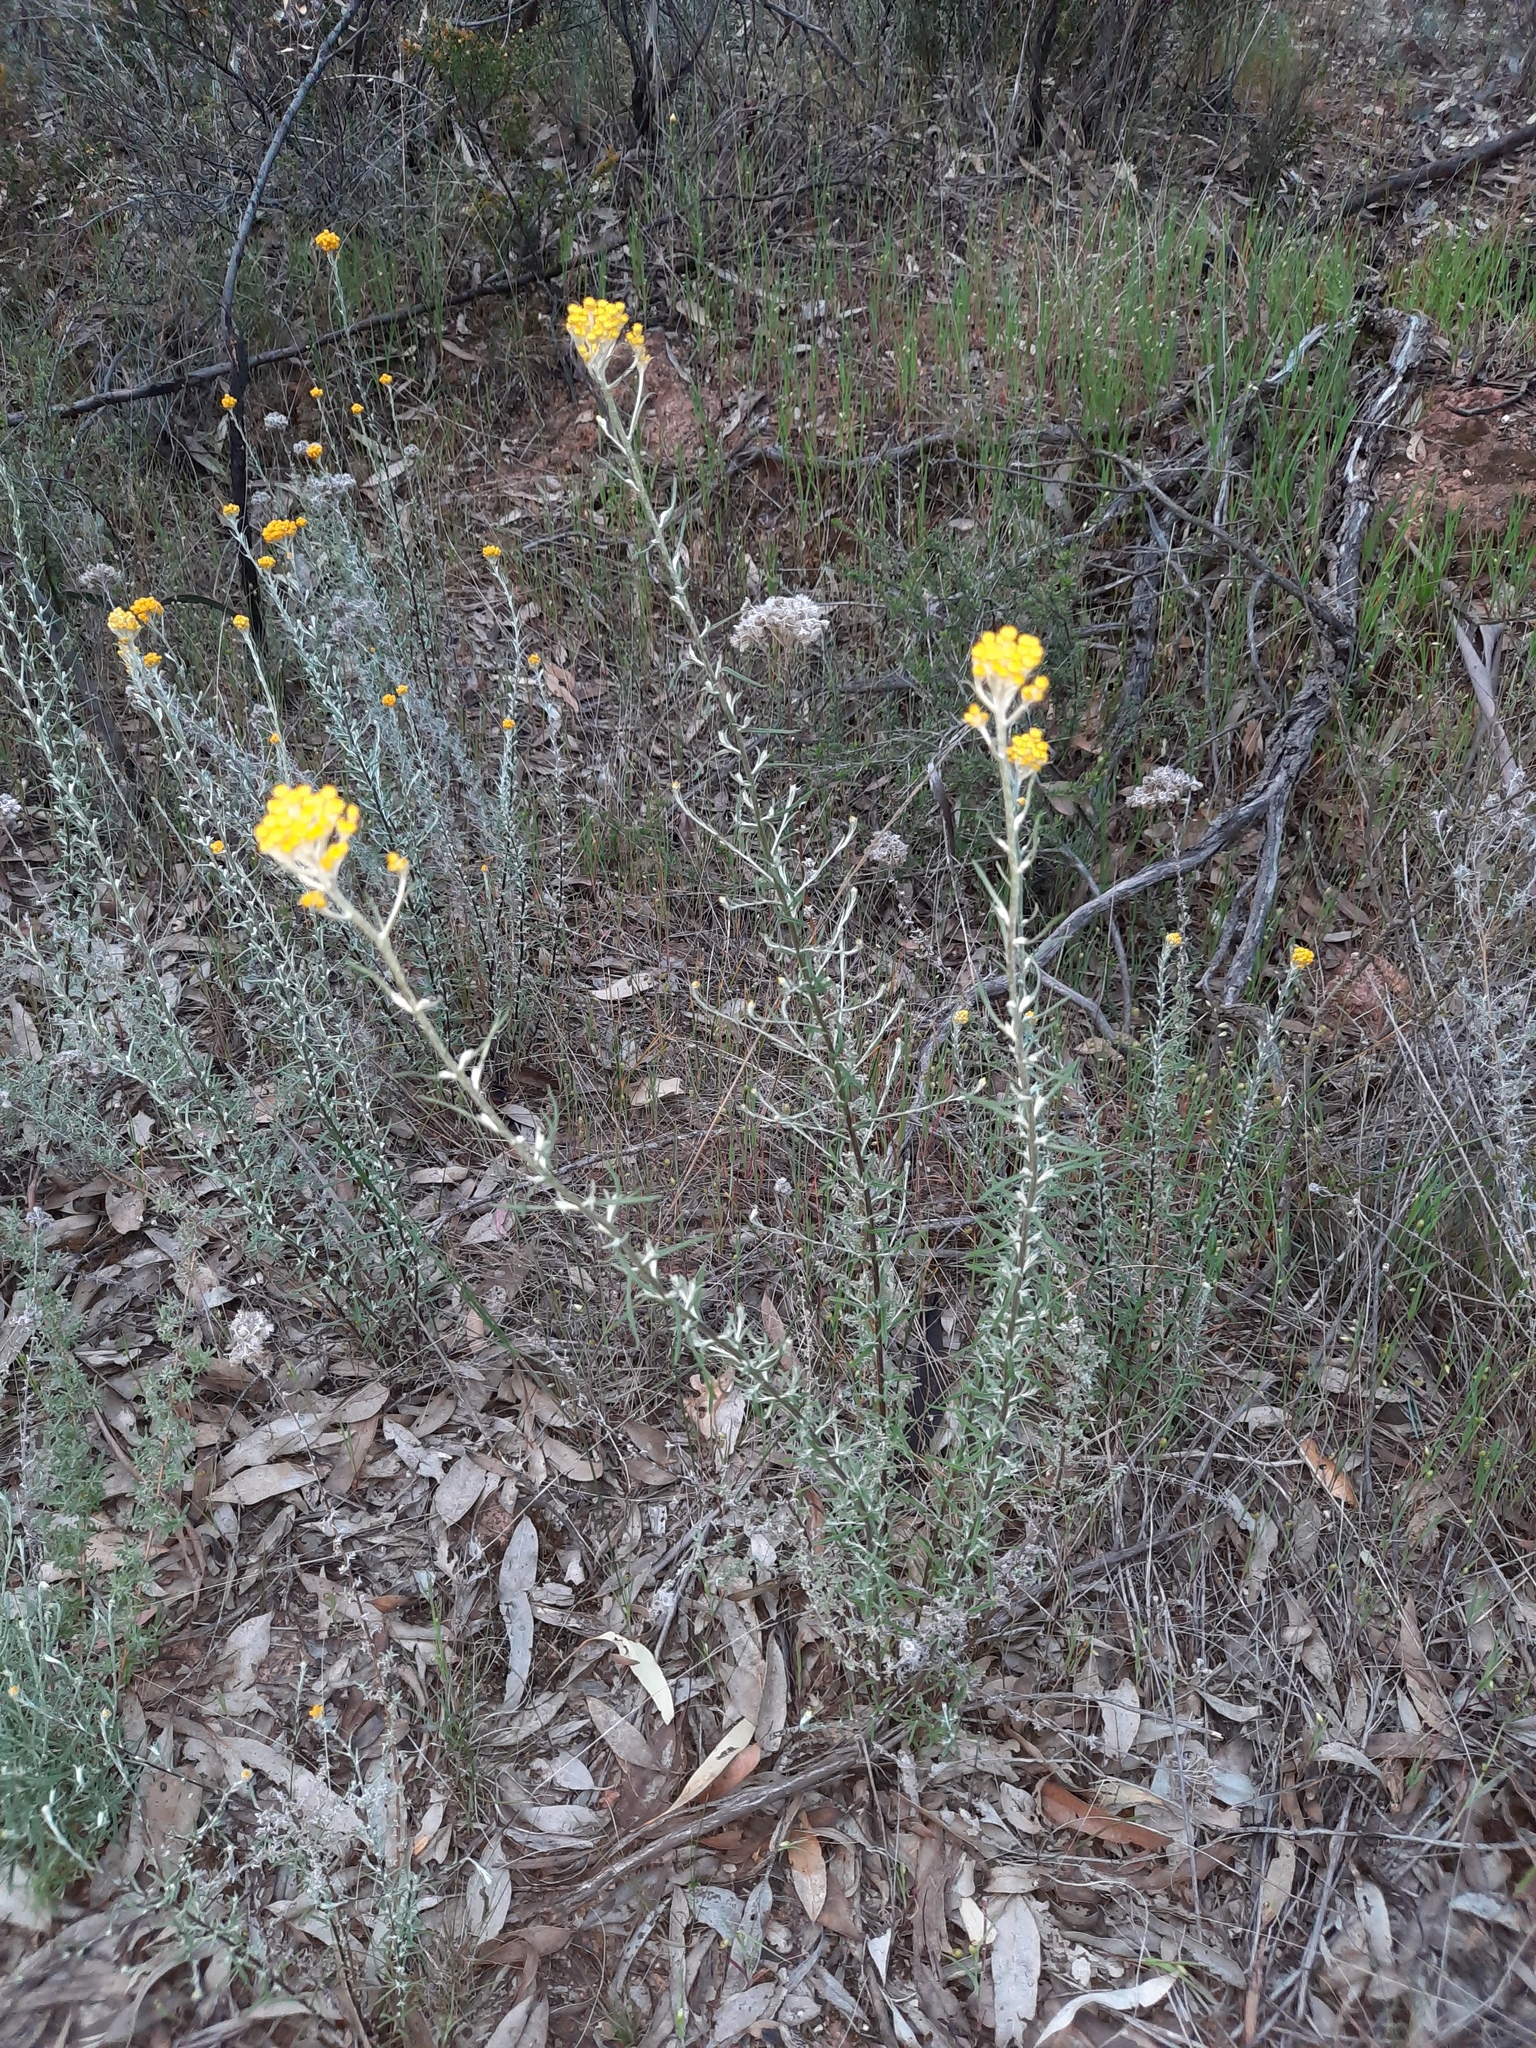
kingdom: Plantae
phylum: Tracheophyta
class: Magnoliopsida
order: Asterales
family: Asteraceae
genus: Chrysocephalum
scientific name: Chrysocephalum semipapposum
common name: Clustered everlasting
